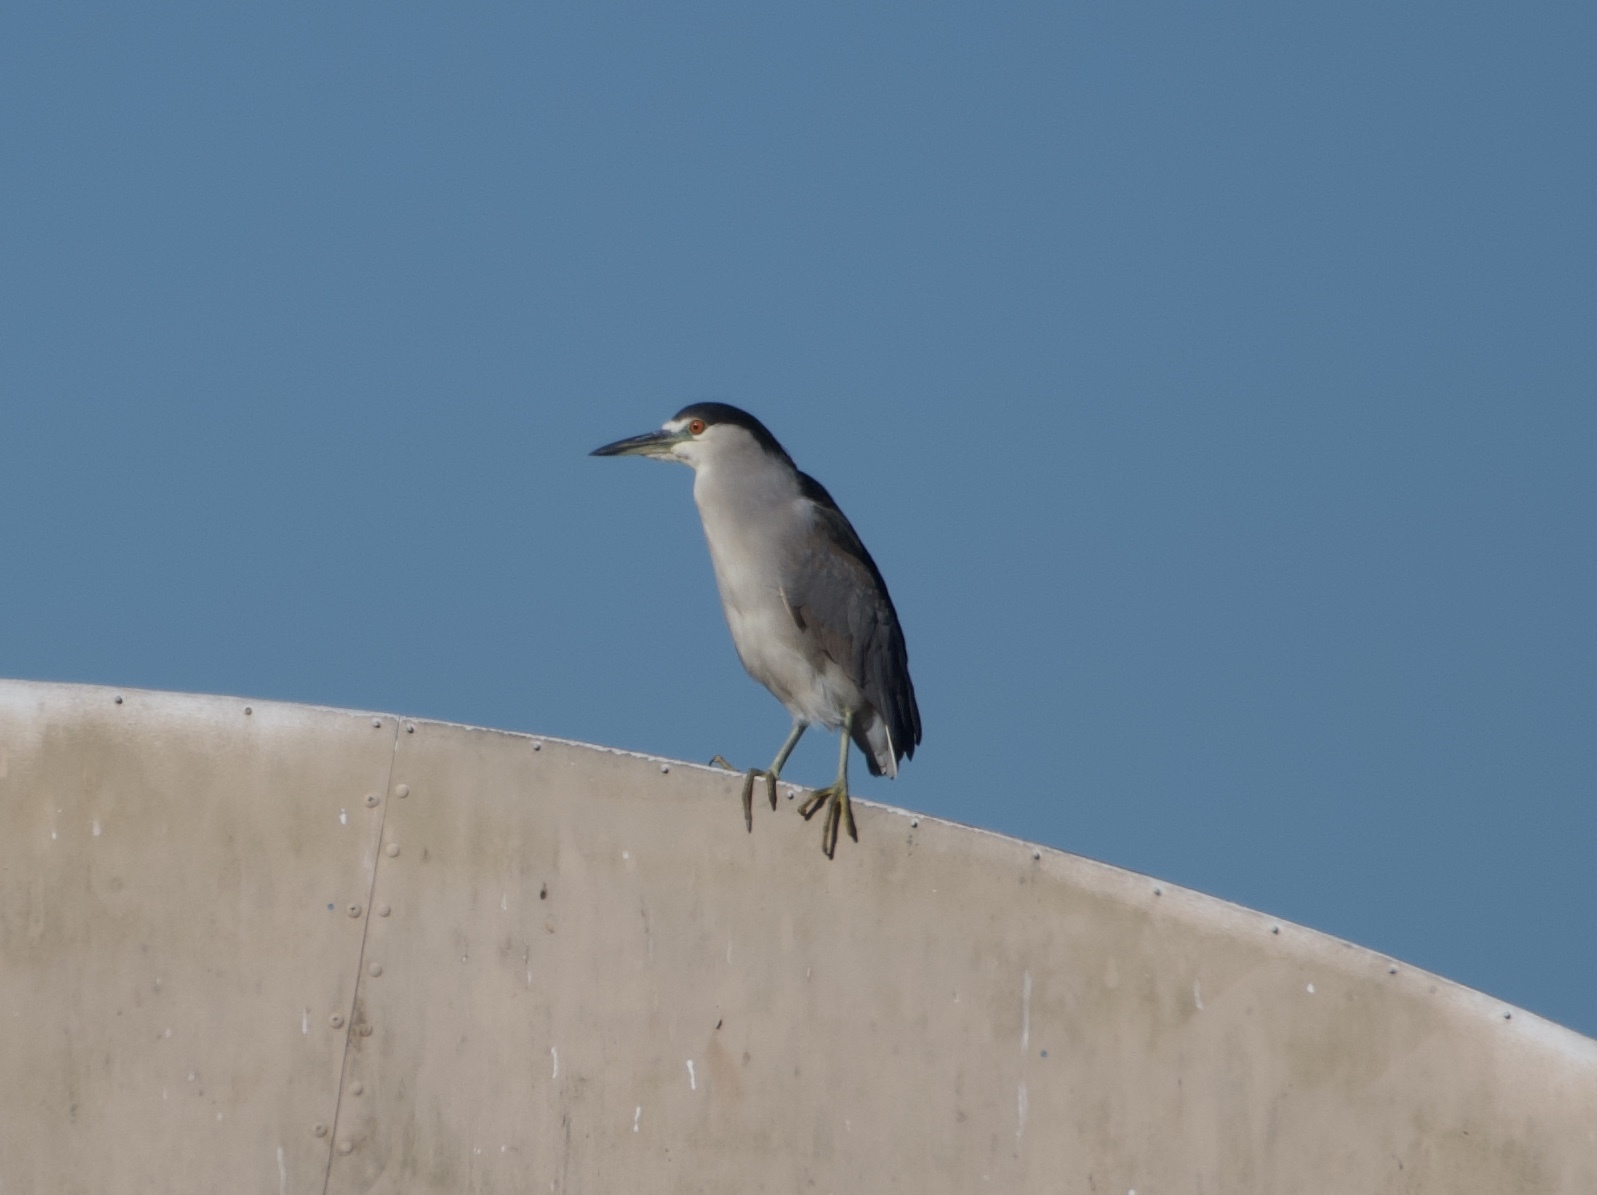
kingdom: Animalia
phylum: Chordata
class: Aves
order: Pelecaniformes
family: Ardeidae
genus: Nycticorax
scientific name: Nycticorax nycticorax
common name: Black-crowned night heron
